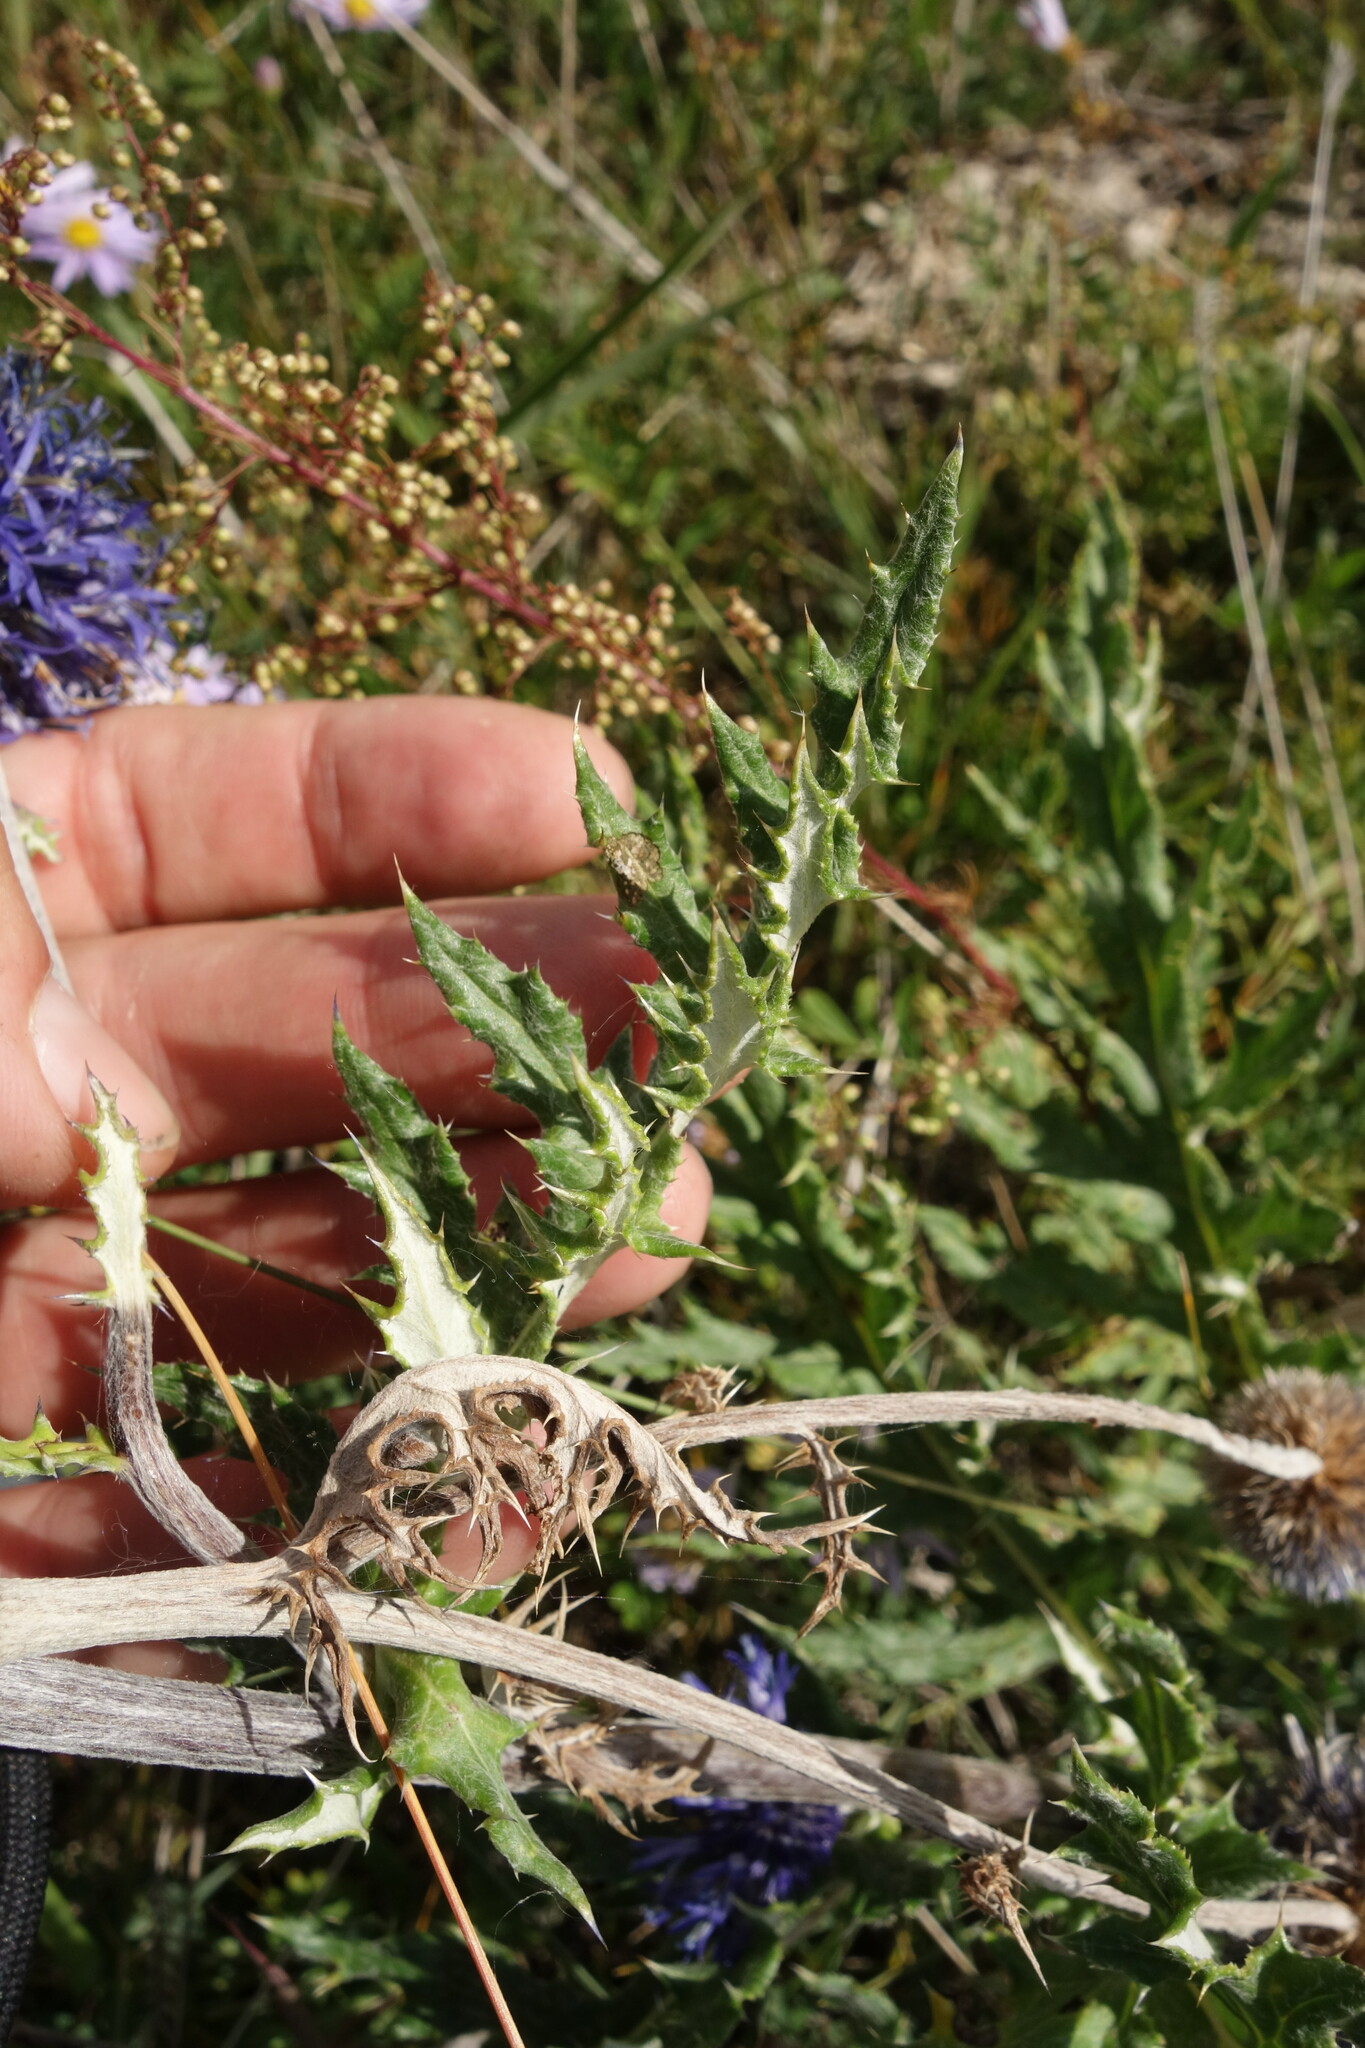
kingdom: Plantae
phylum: Tracheophyta
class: Magnoliopsida
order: Asterales
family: Asteraceae
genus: Echinops
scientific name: Echinops davuricus
